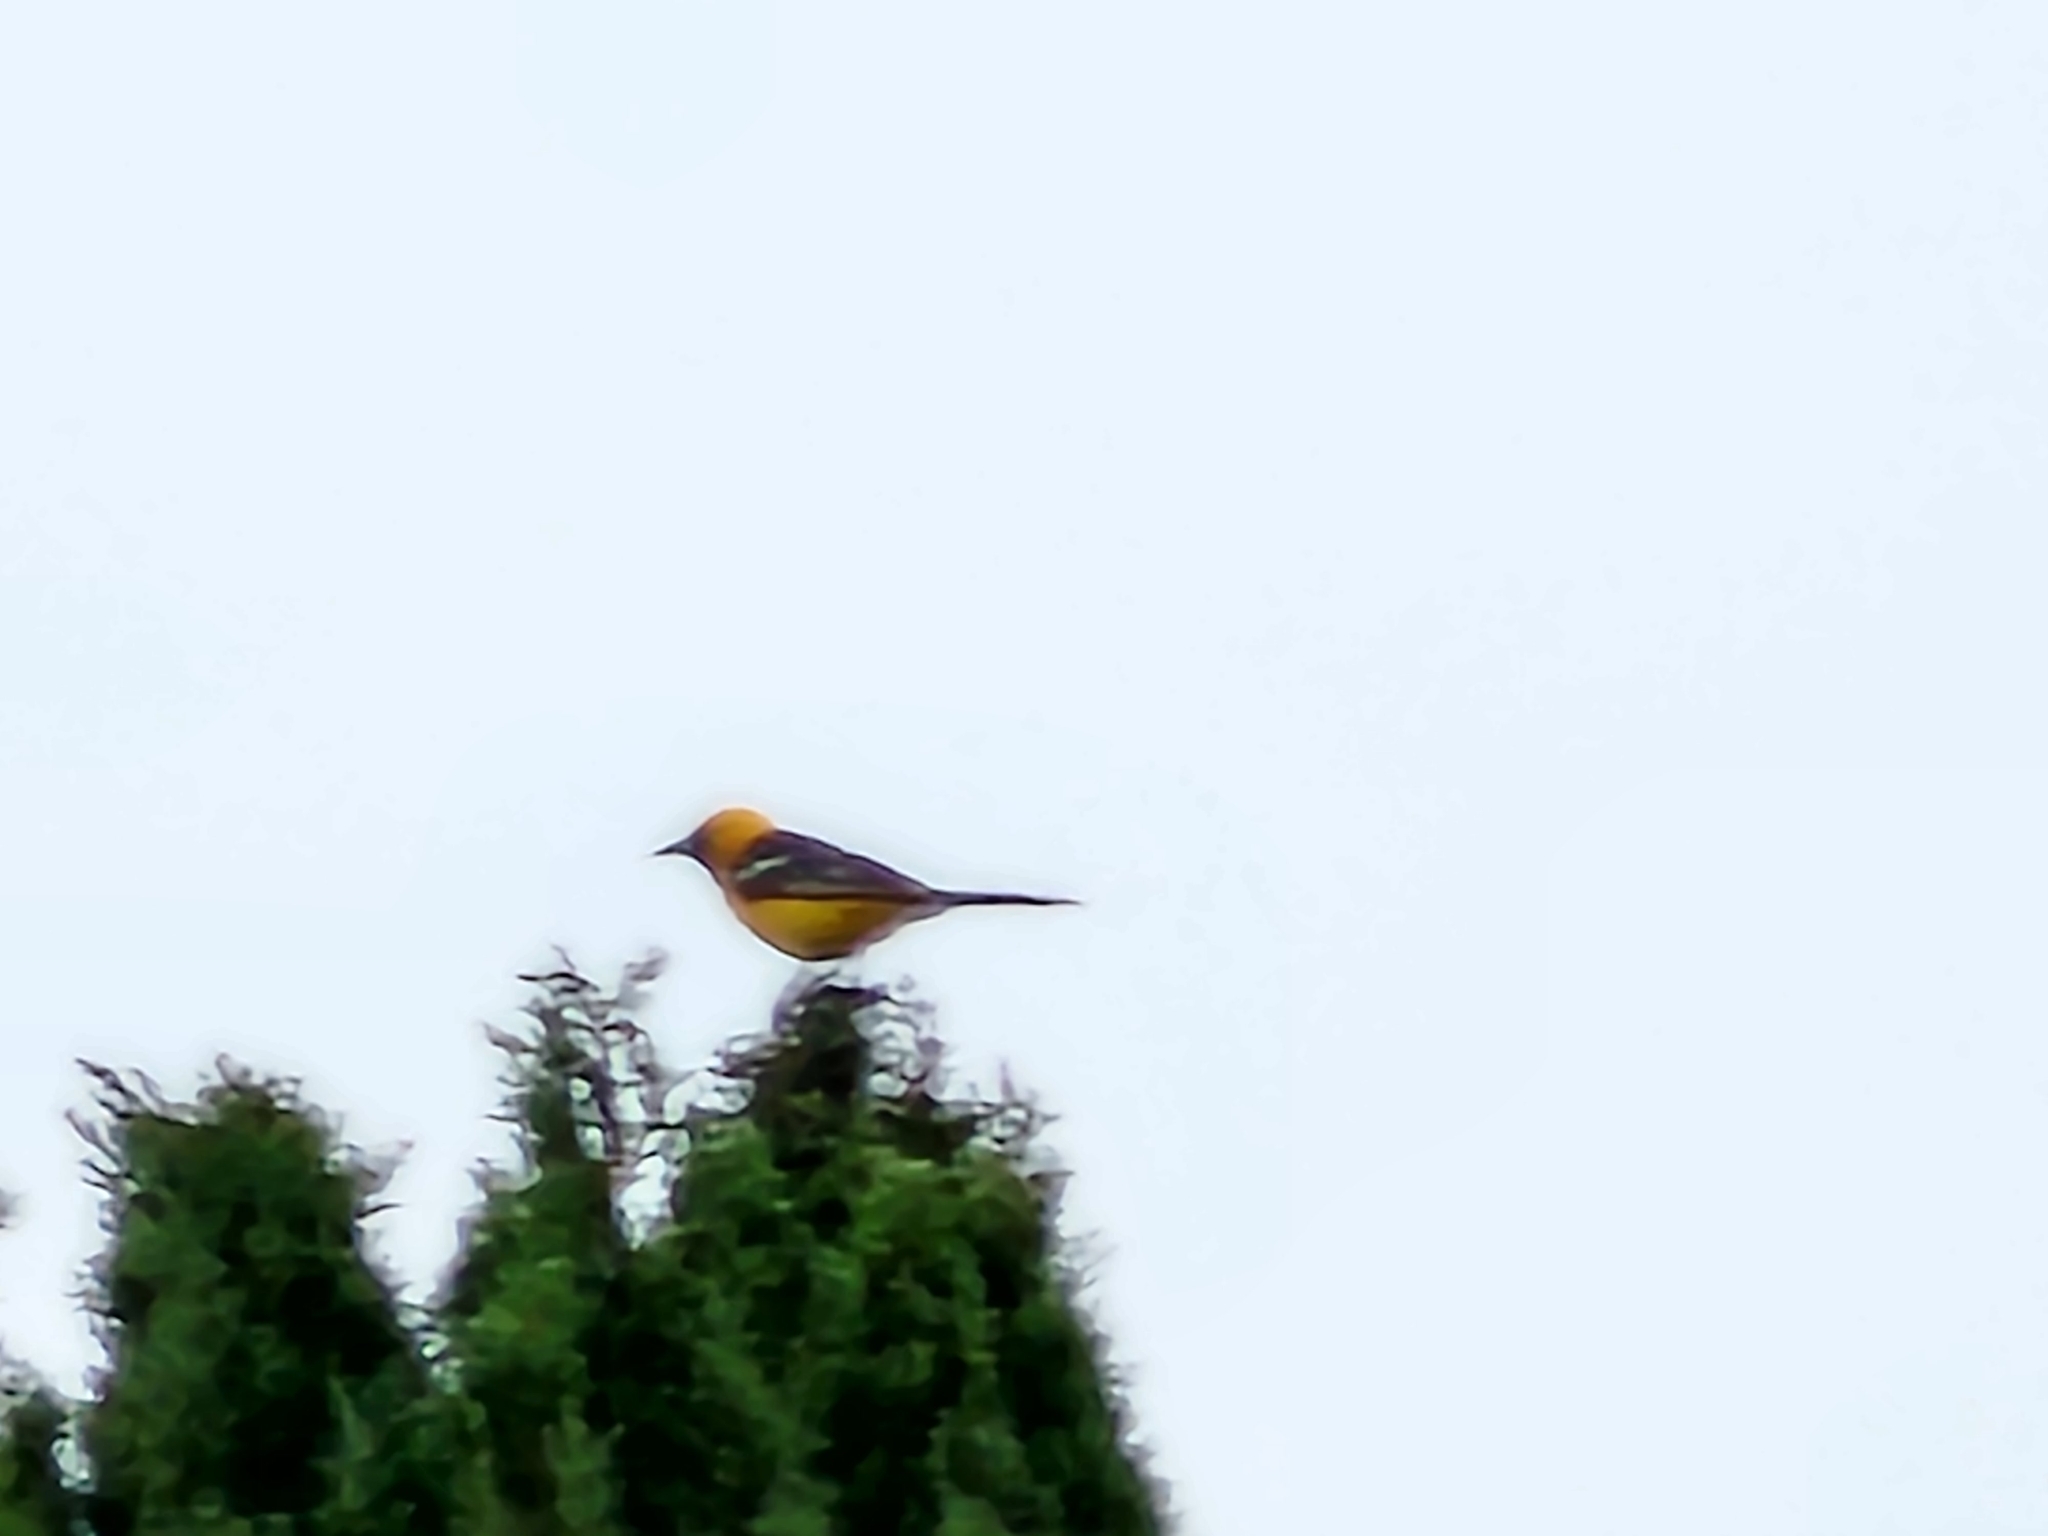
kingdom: Animalia
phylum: Chordata
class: Aves
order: Passeriformes
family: Icteridae
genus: Icterus
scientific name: Icterus cucullatus
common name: Hooded oriole
